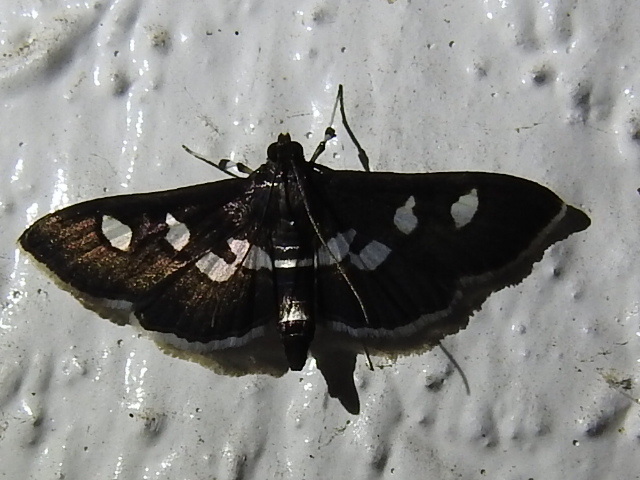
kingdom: Animalia
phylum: Arthropoda
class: Insecta
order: Lepidoptera
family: Crambidae
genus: Desmia
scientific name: Desmia funeralis
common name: Grape leaf folder moth
